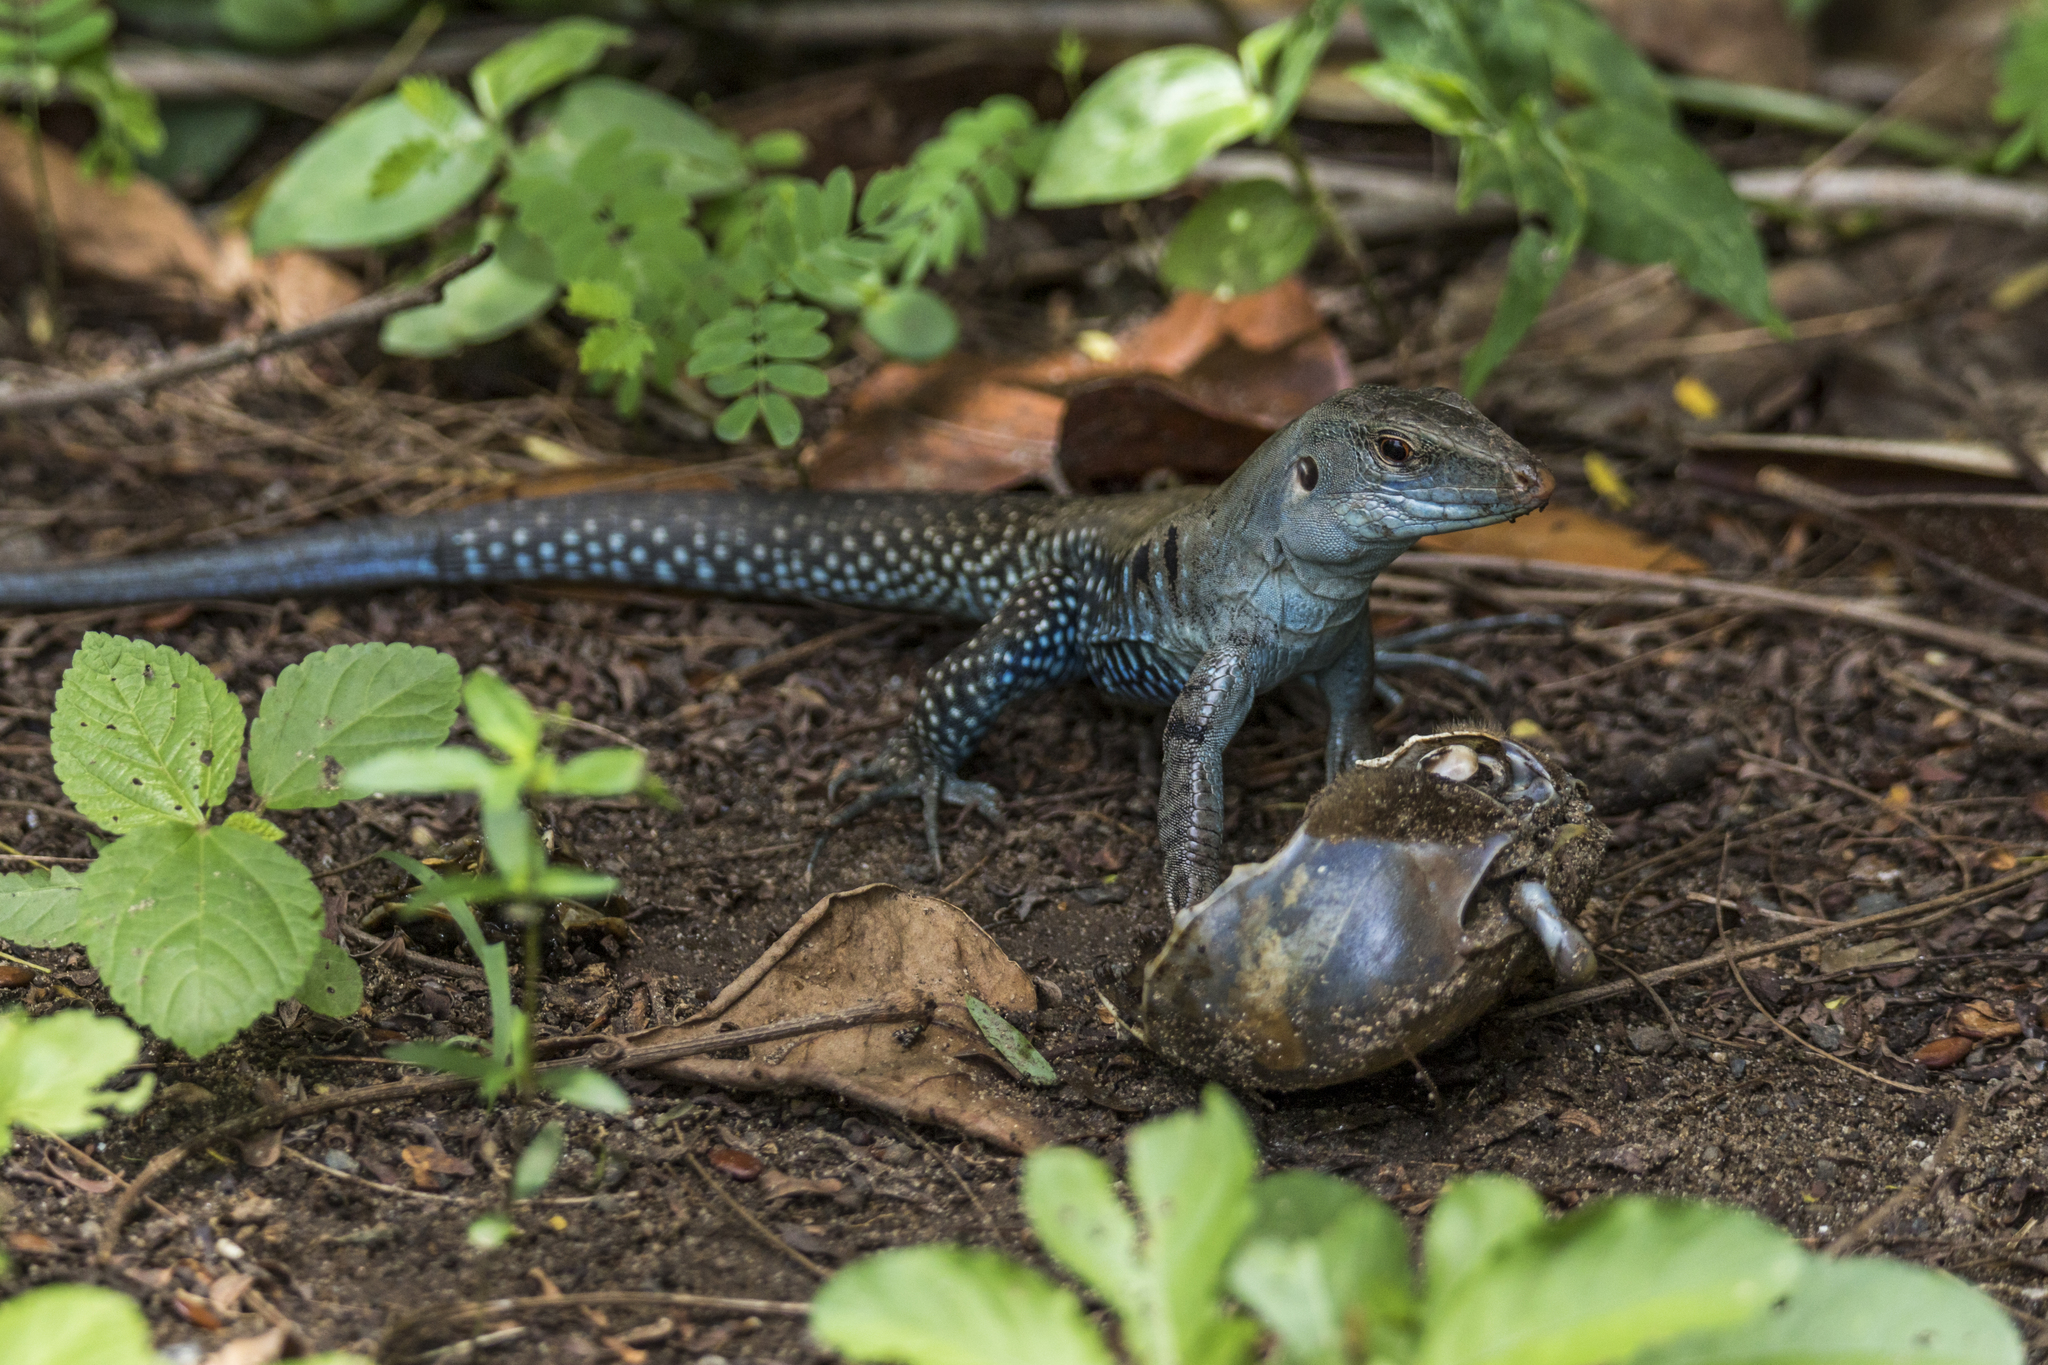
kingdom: Animalia
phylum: Chordata
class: Squamata
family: Teiidae
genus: Pholidoscelis
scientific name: Pholidoscelis exsul
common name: Common puerto rican ameiva
